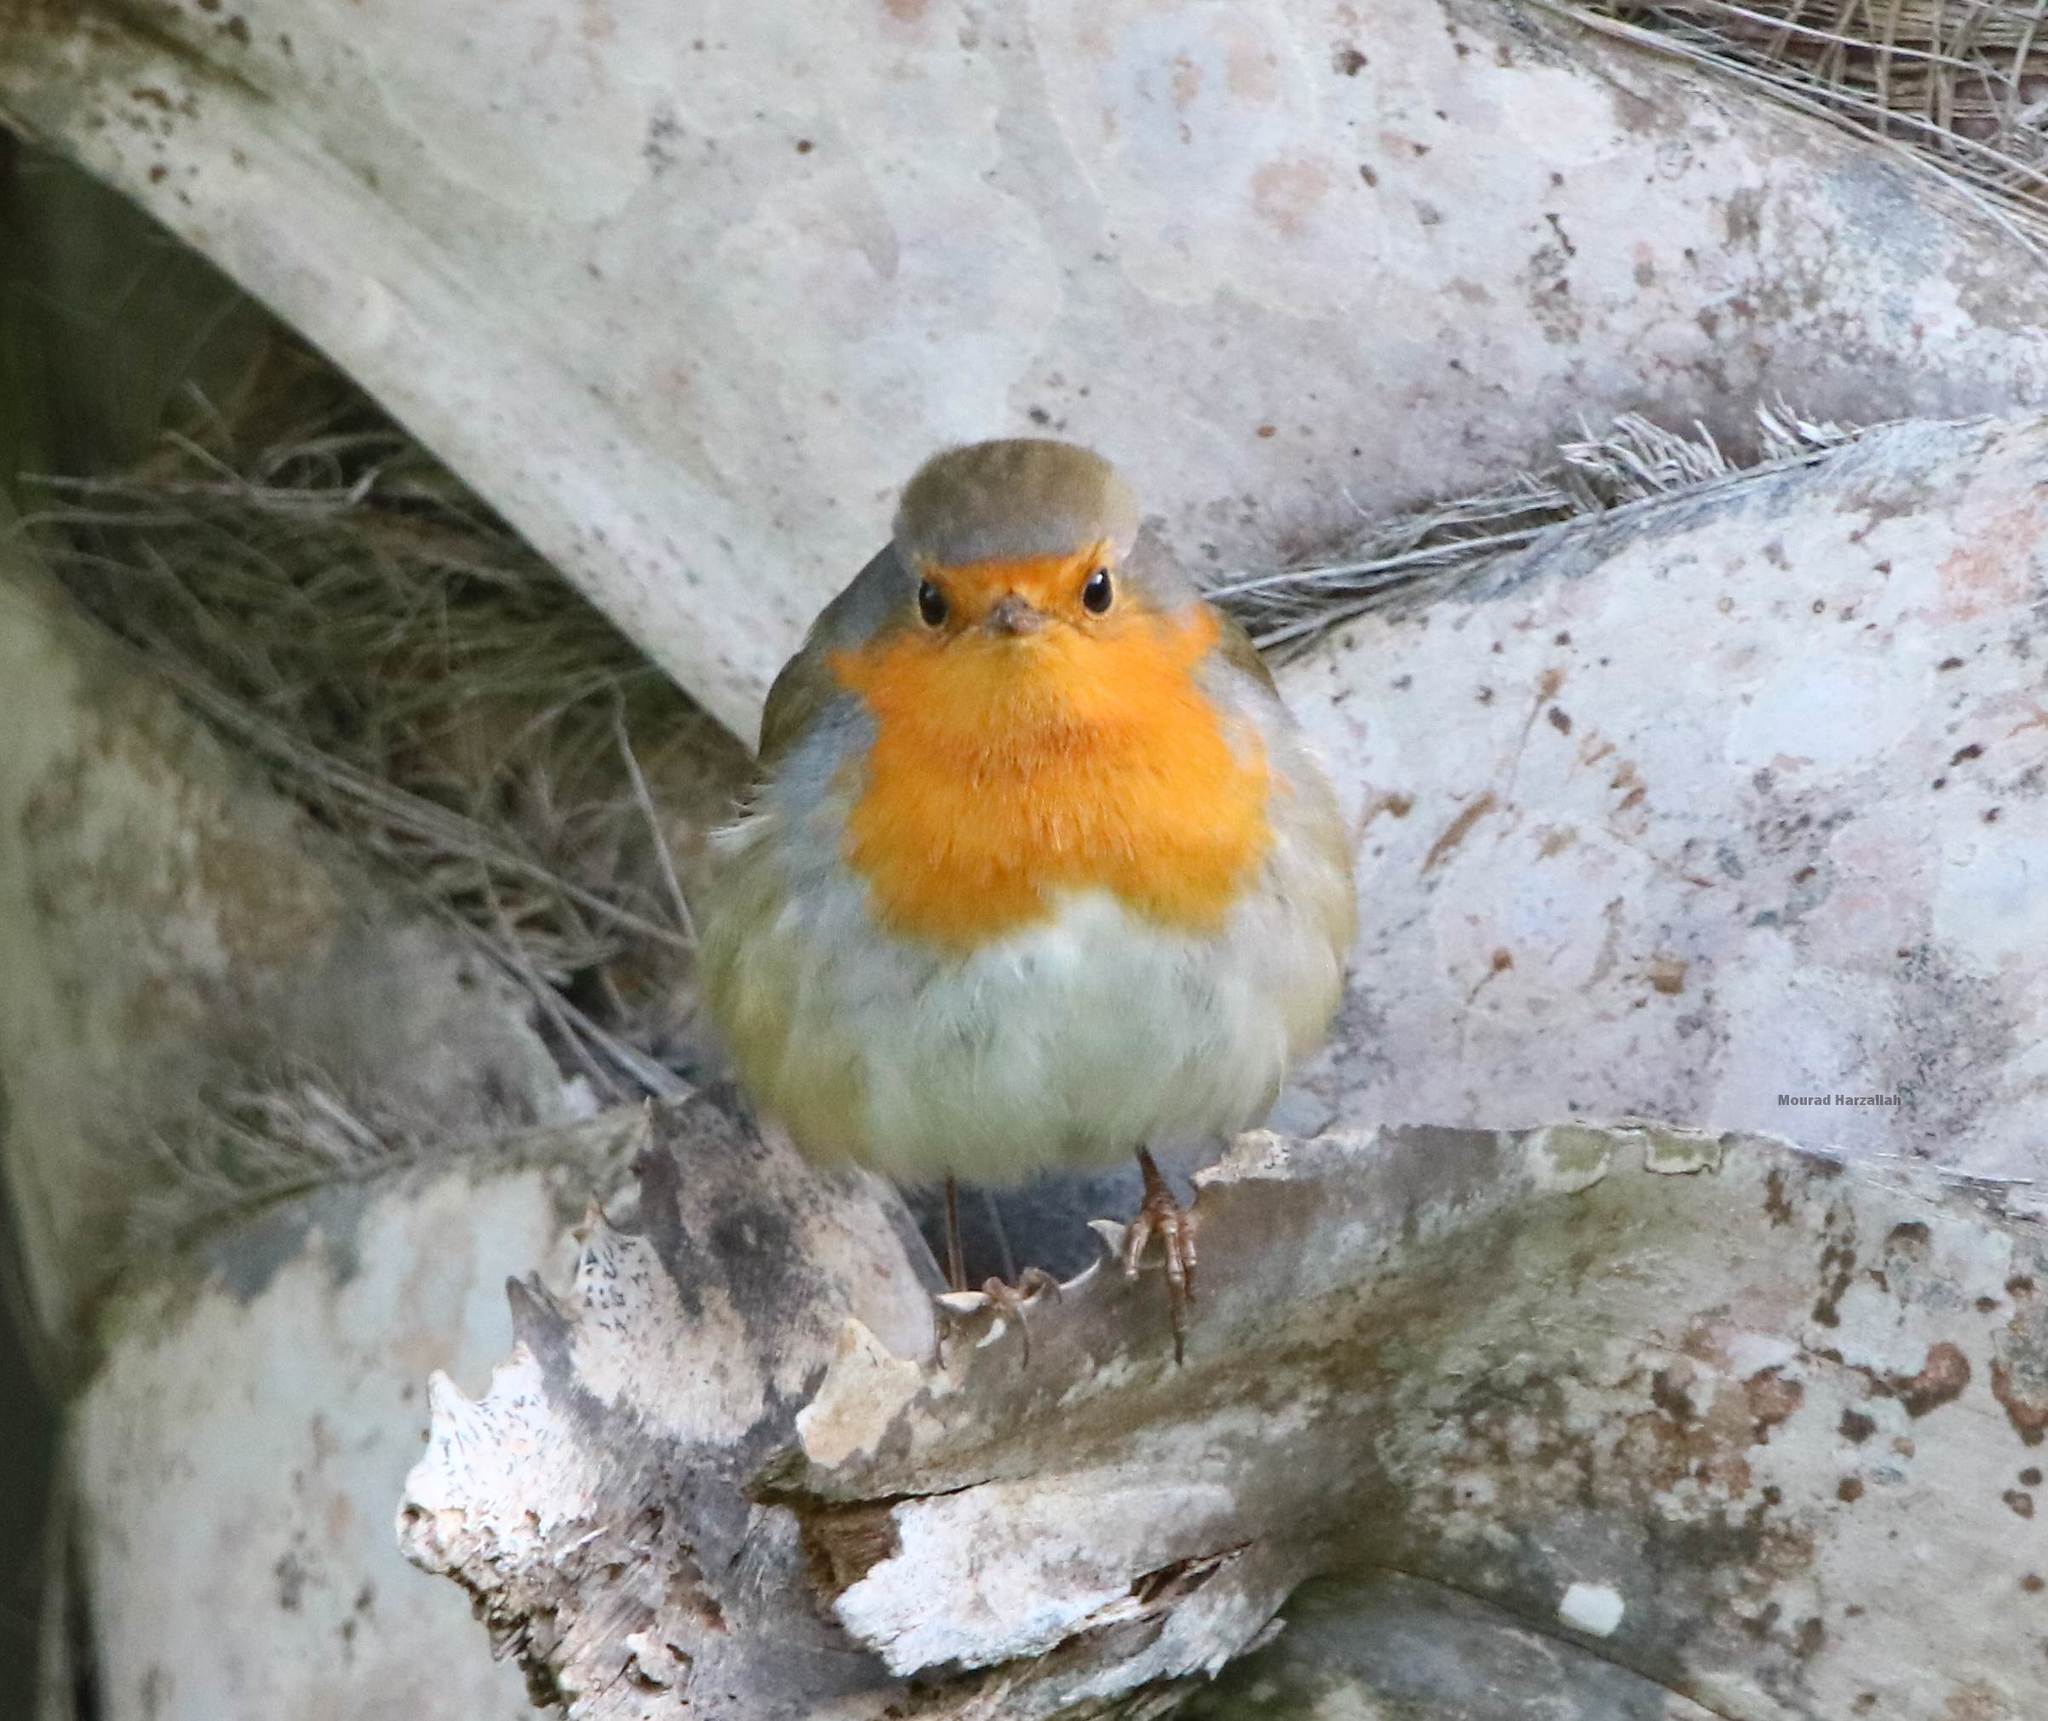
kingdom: Animalia
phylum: Chordata
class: Aves
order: Passeriformes
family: Muscicapidae
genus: Erithacus
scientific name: Erithacus rubecula
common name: European robin
